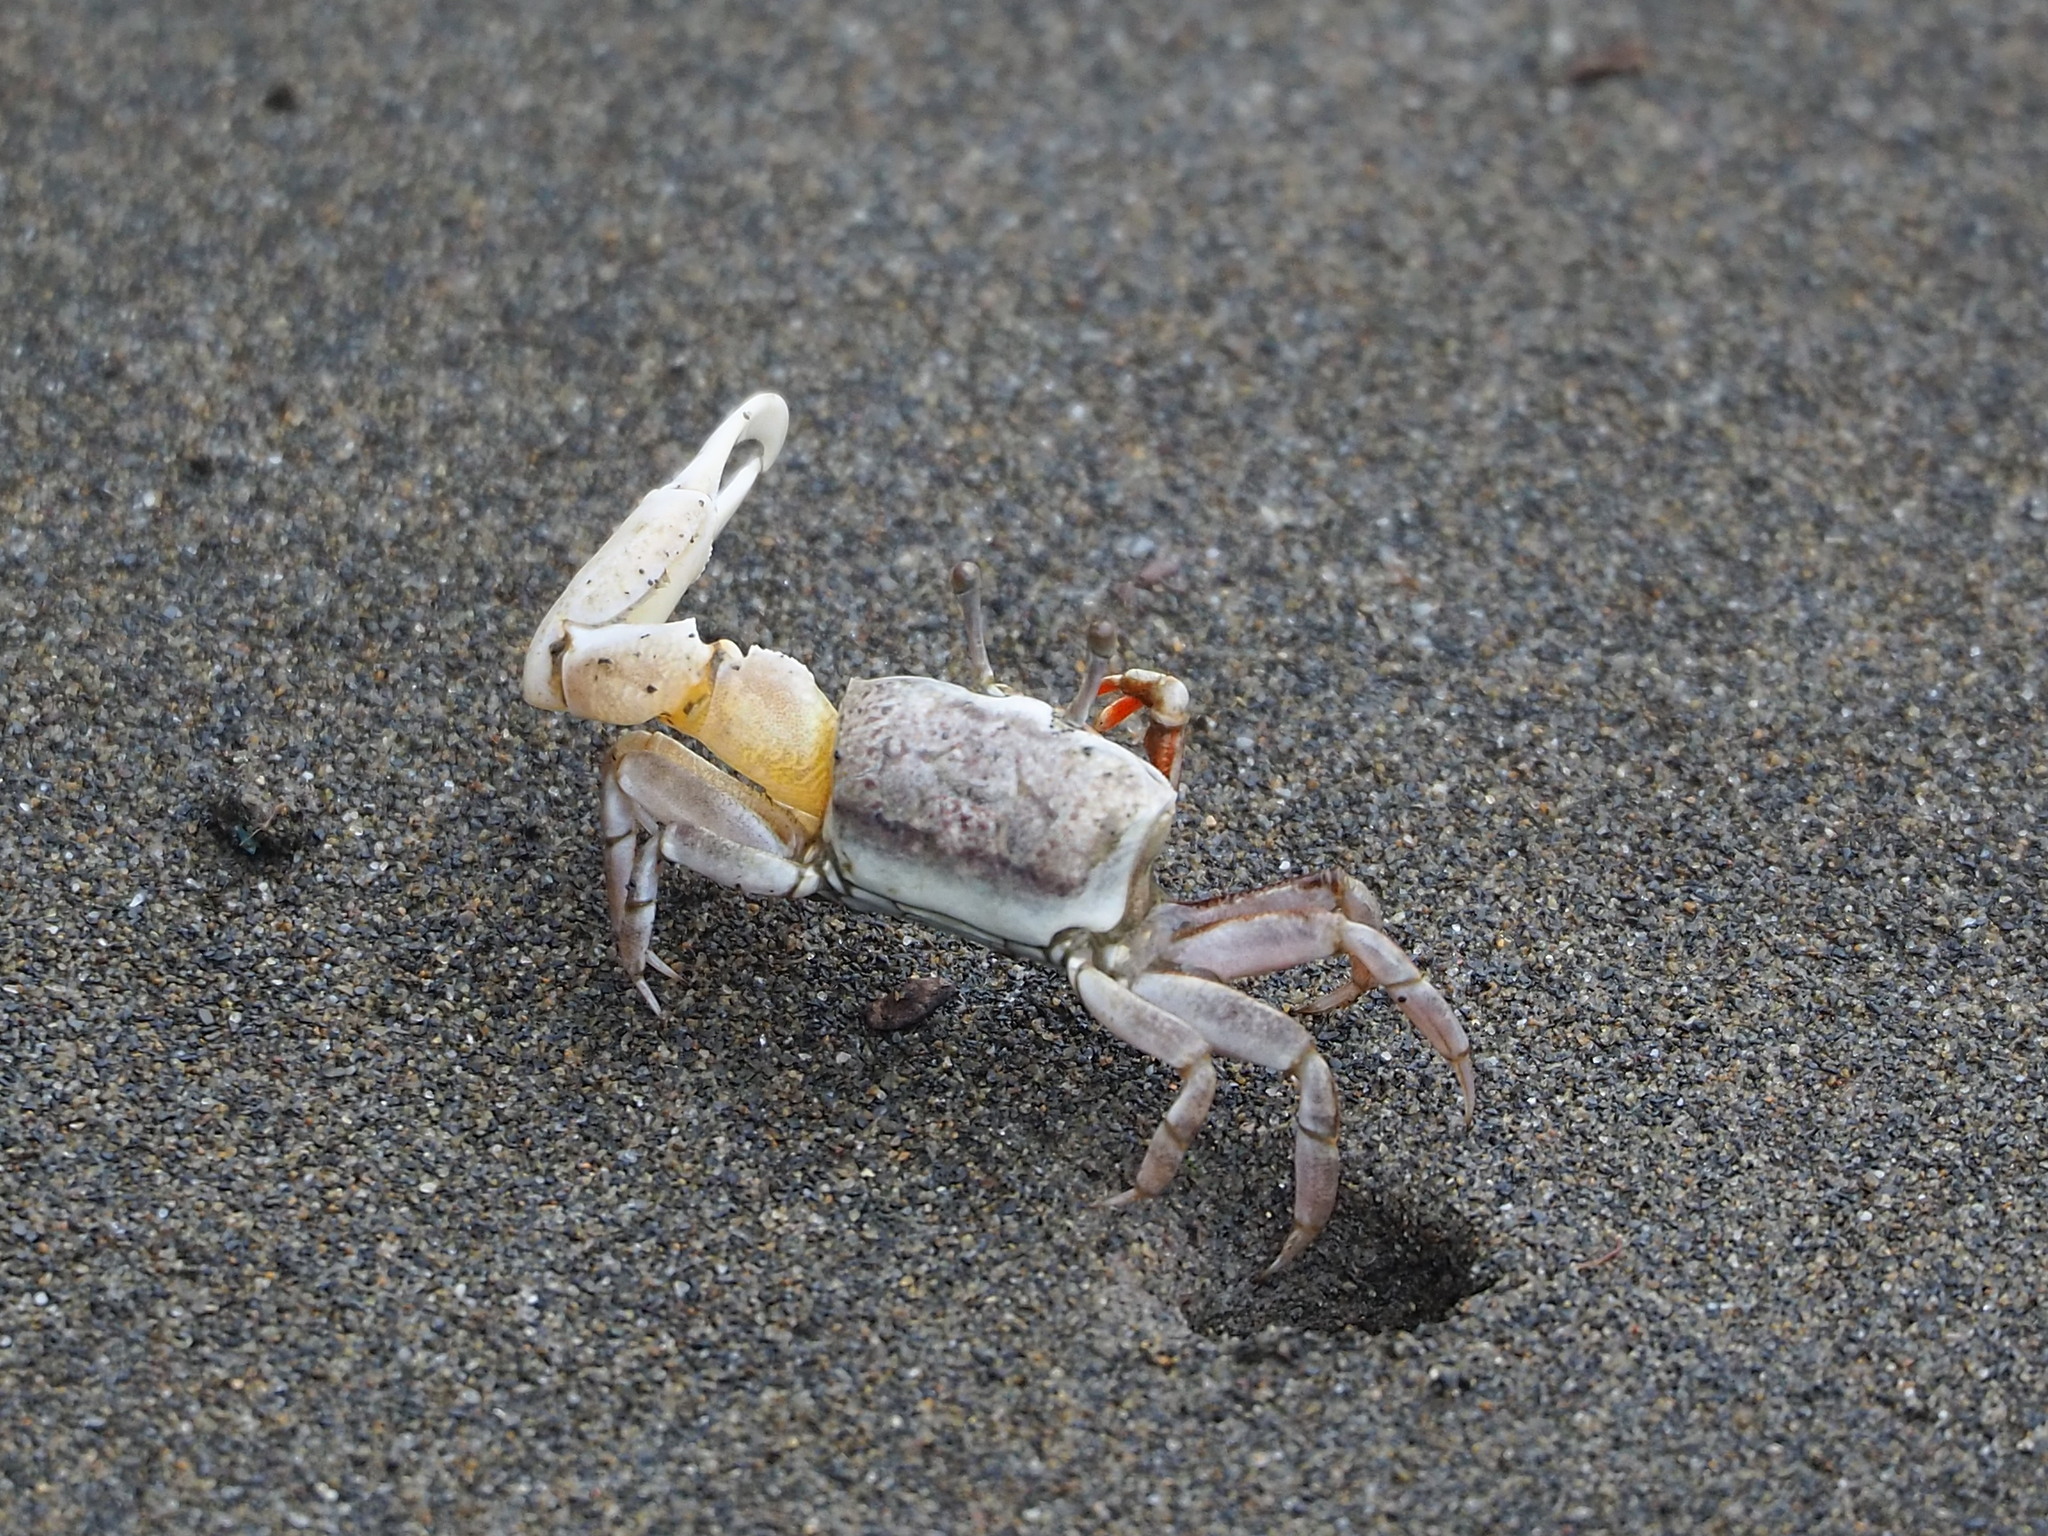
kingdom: Animalia
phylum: Arthropoda
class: Malacostraca
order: Decapoda
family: Ocypodidae
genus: Austruca
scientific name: Austruca lactea
